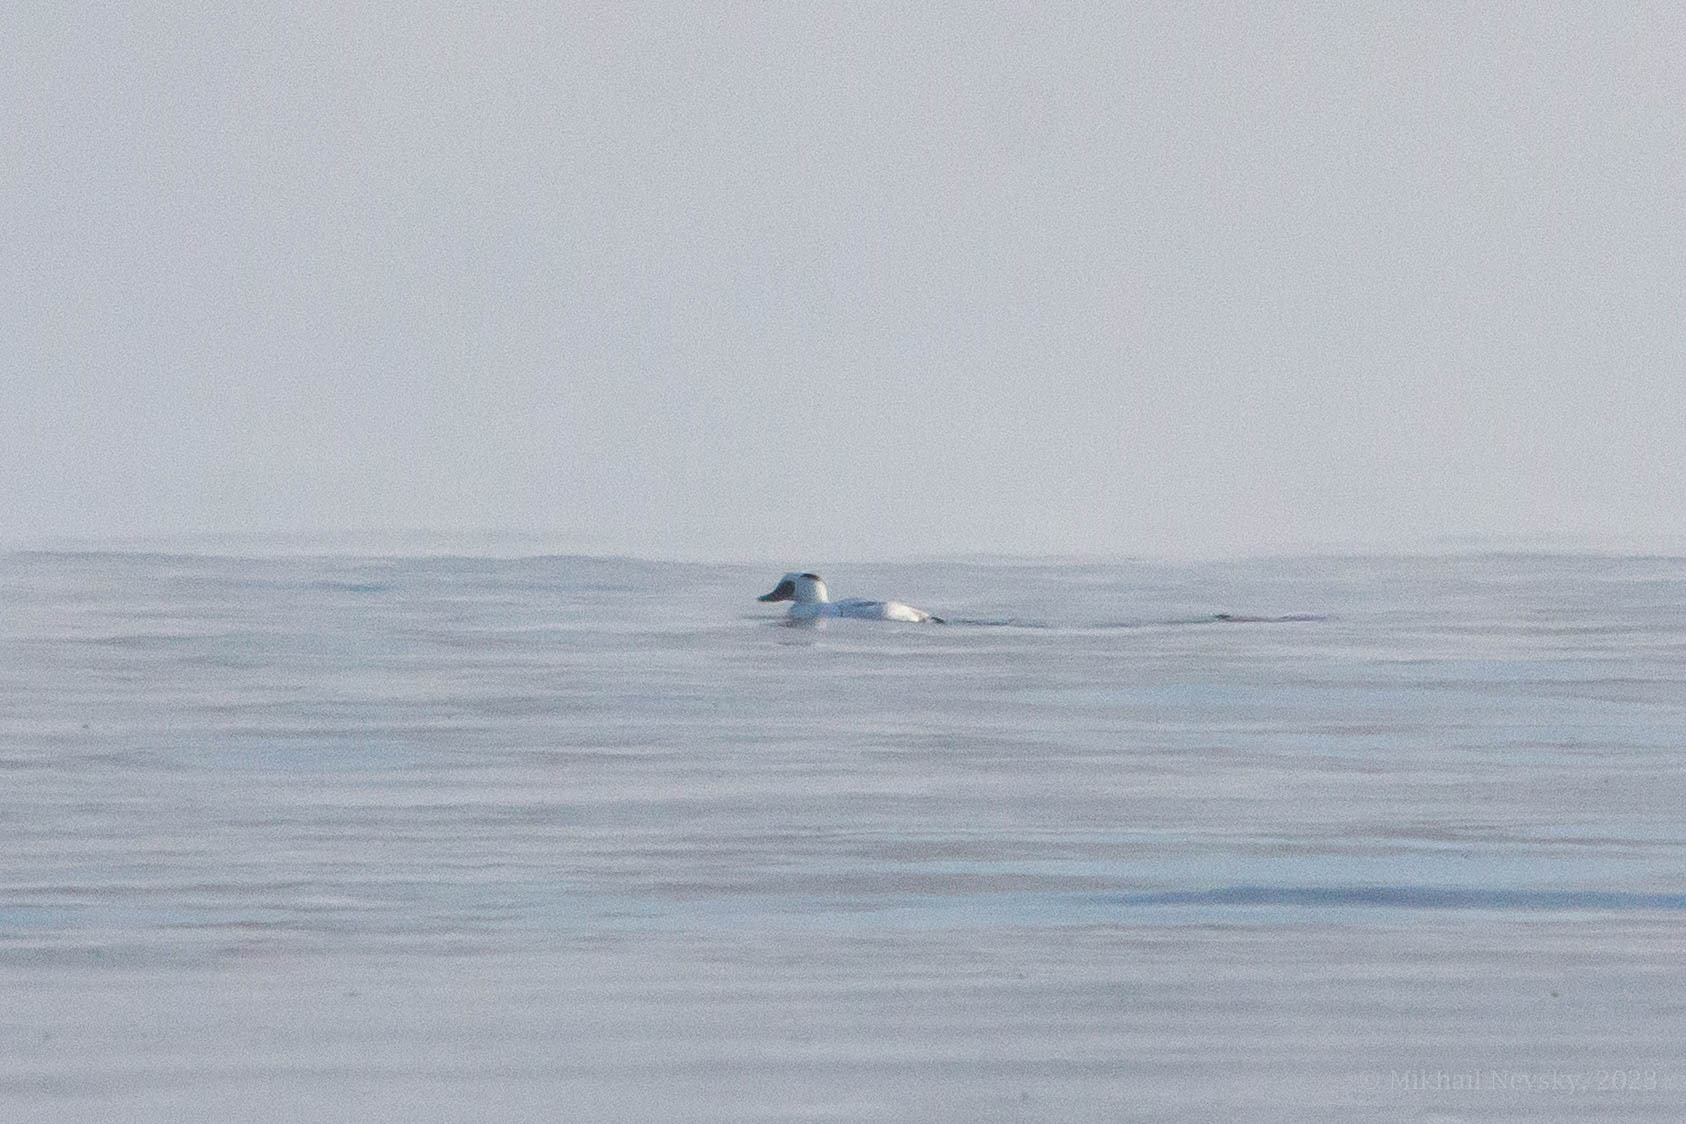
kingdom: Animalia
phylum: Chordata
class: Aves
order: Anseriformes
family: Anatidae
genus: Mergellus
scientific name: Mergellus albellus
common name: Smew
